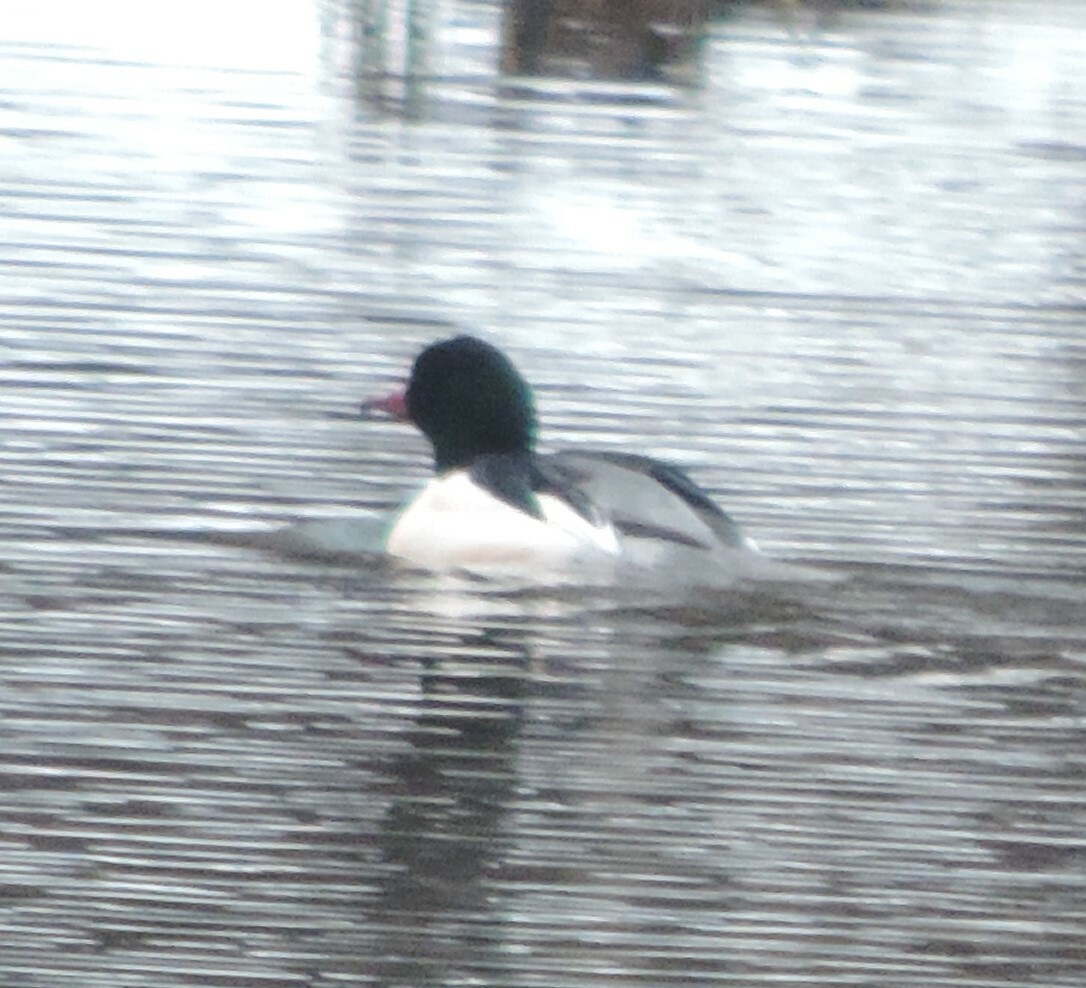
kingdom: Animalia
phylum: Chordata
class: Aves
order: Anseriformes
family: Anatidae
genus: Mergus
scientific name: Mergus merganser
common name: Common merganser
